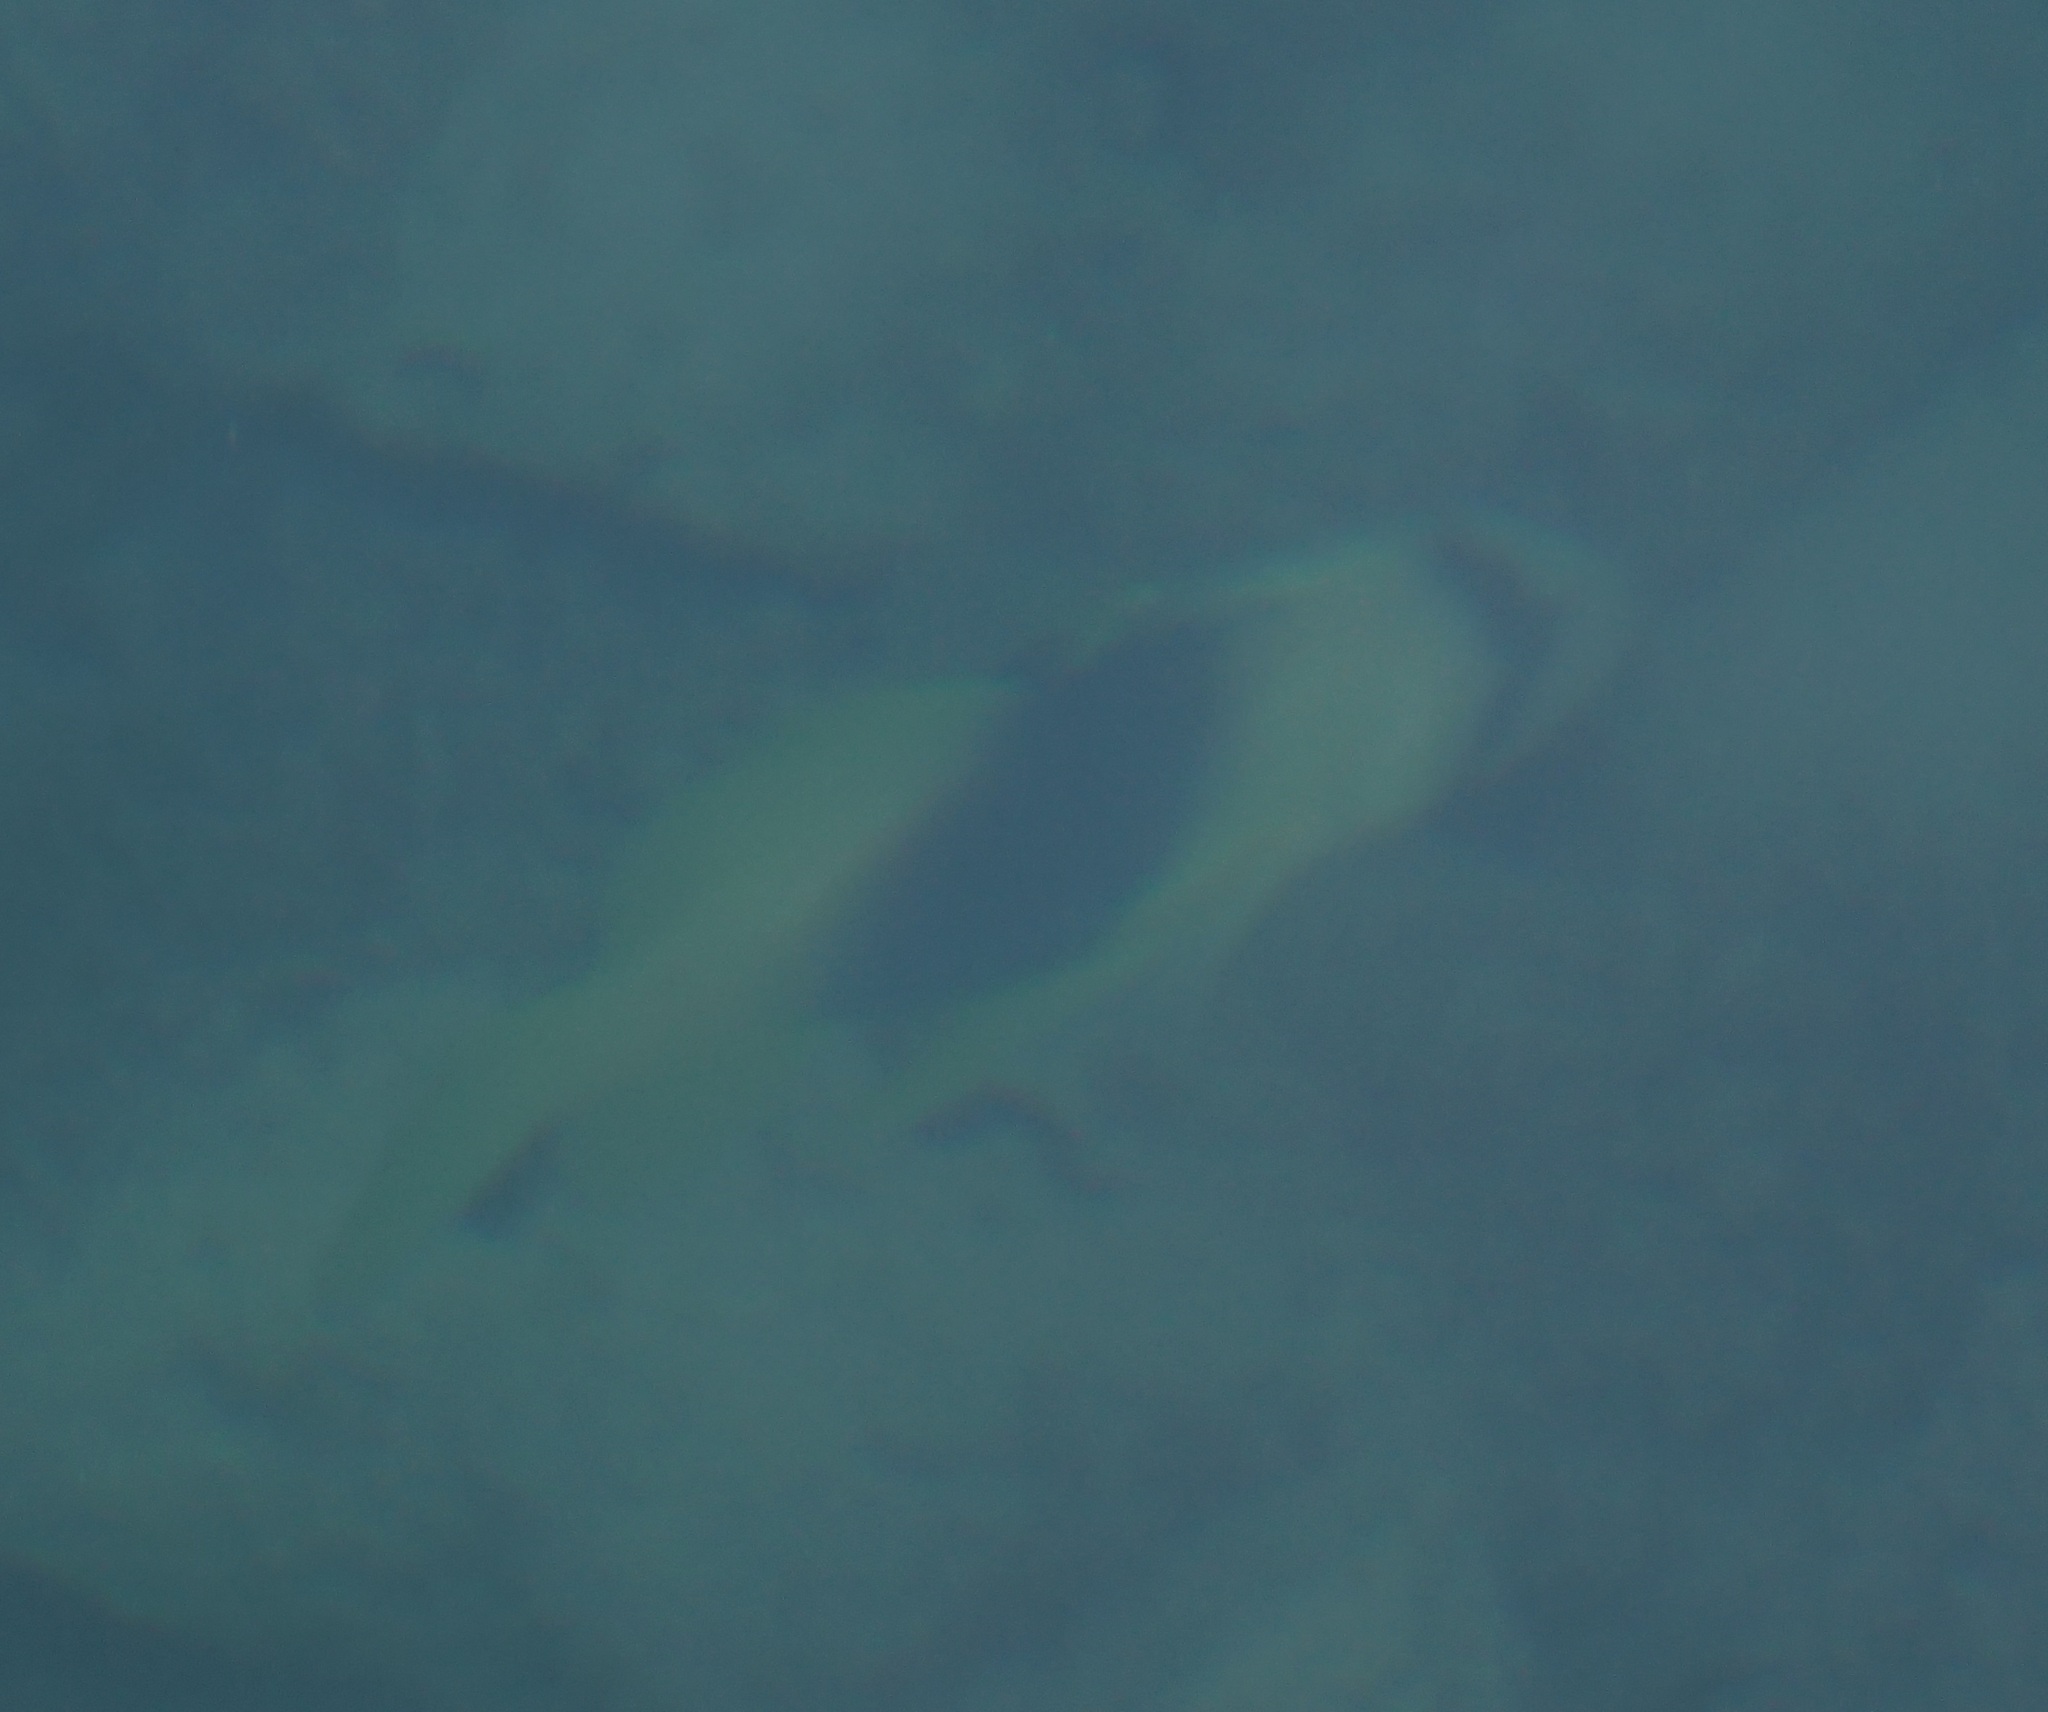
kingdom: Animalia
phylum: Chordata
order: Perciformes
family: Serranidae
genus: Diploprion
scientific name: Diploprion bifasciatum
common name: Barred soapfish
